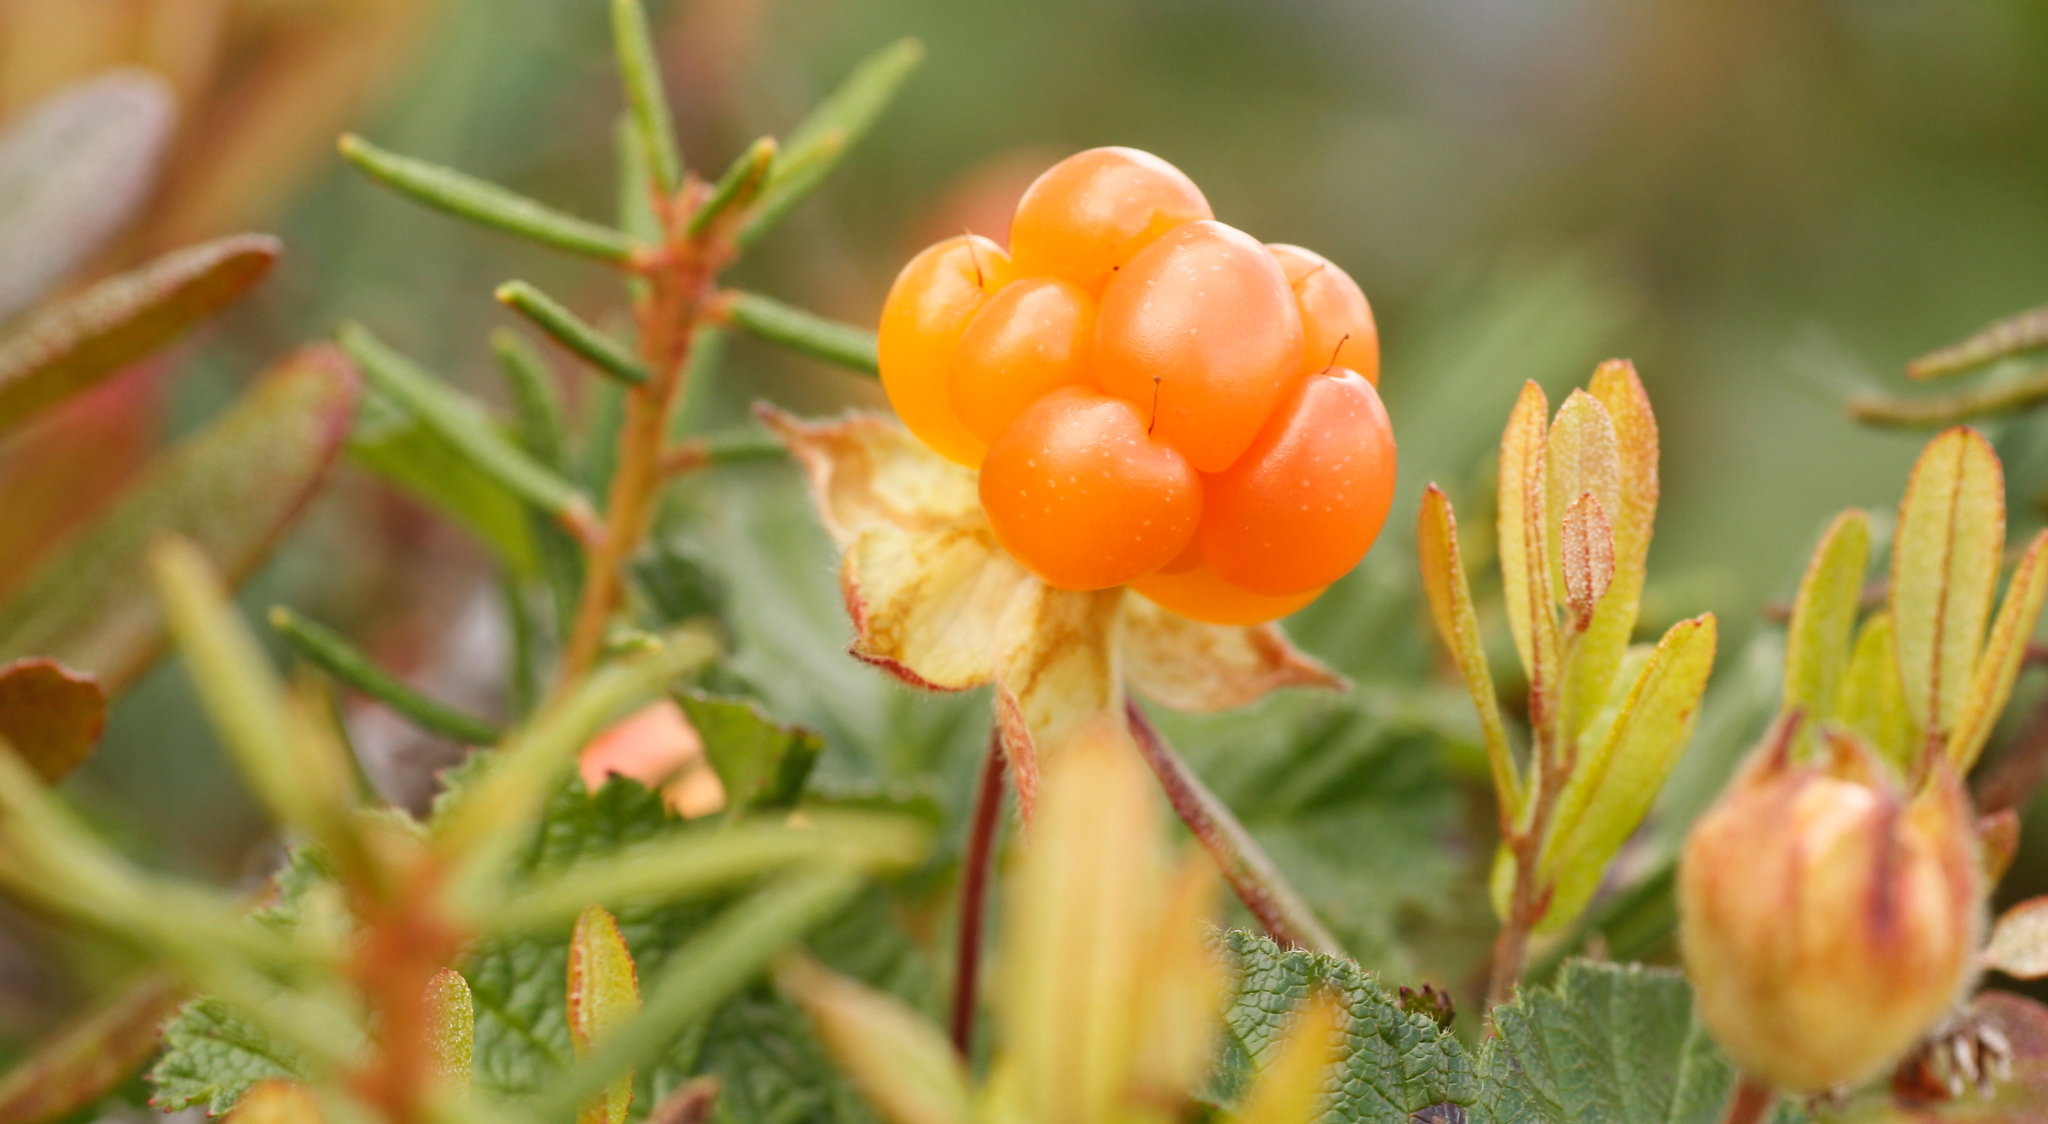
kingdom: Plantae
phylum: Tracheophyta
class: Magnoliopsida
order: Rosales
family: Rosaceae
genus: Rubus
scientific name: Rubus chamaemorus
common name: Cloudberry
